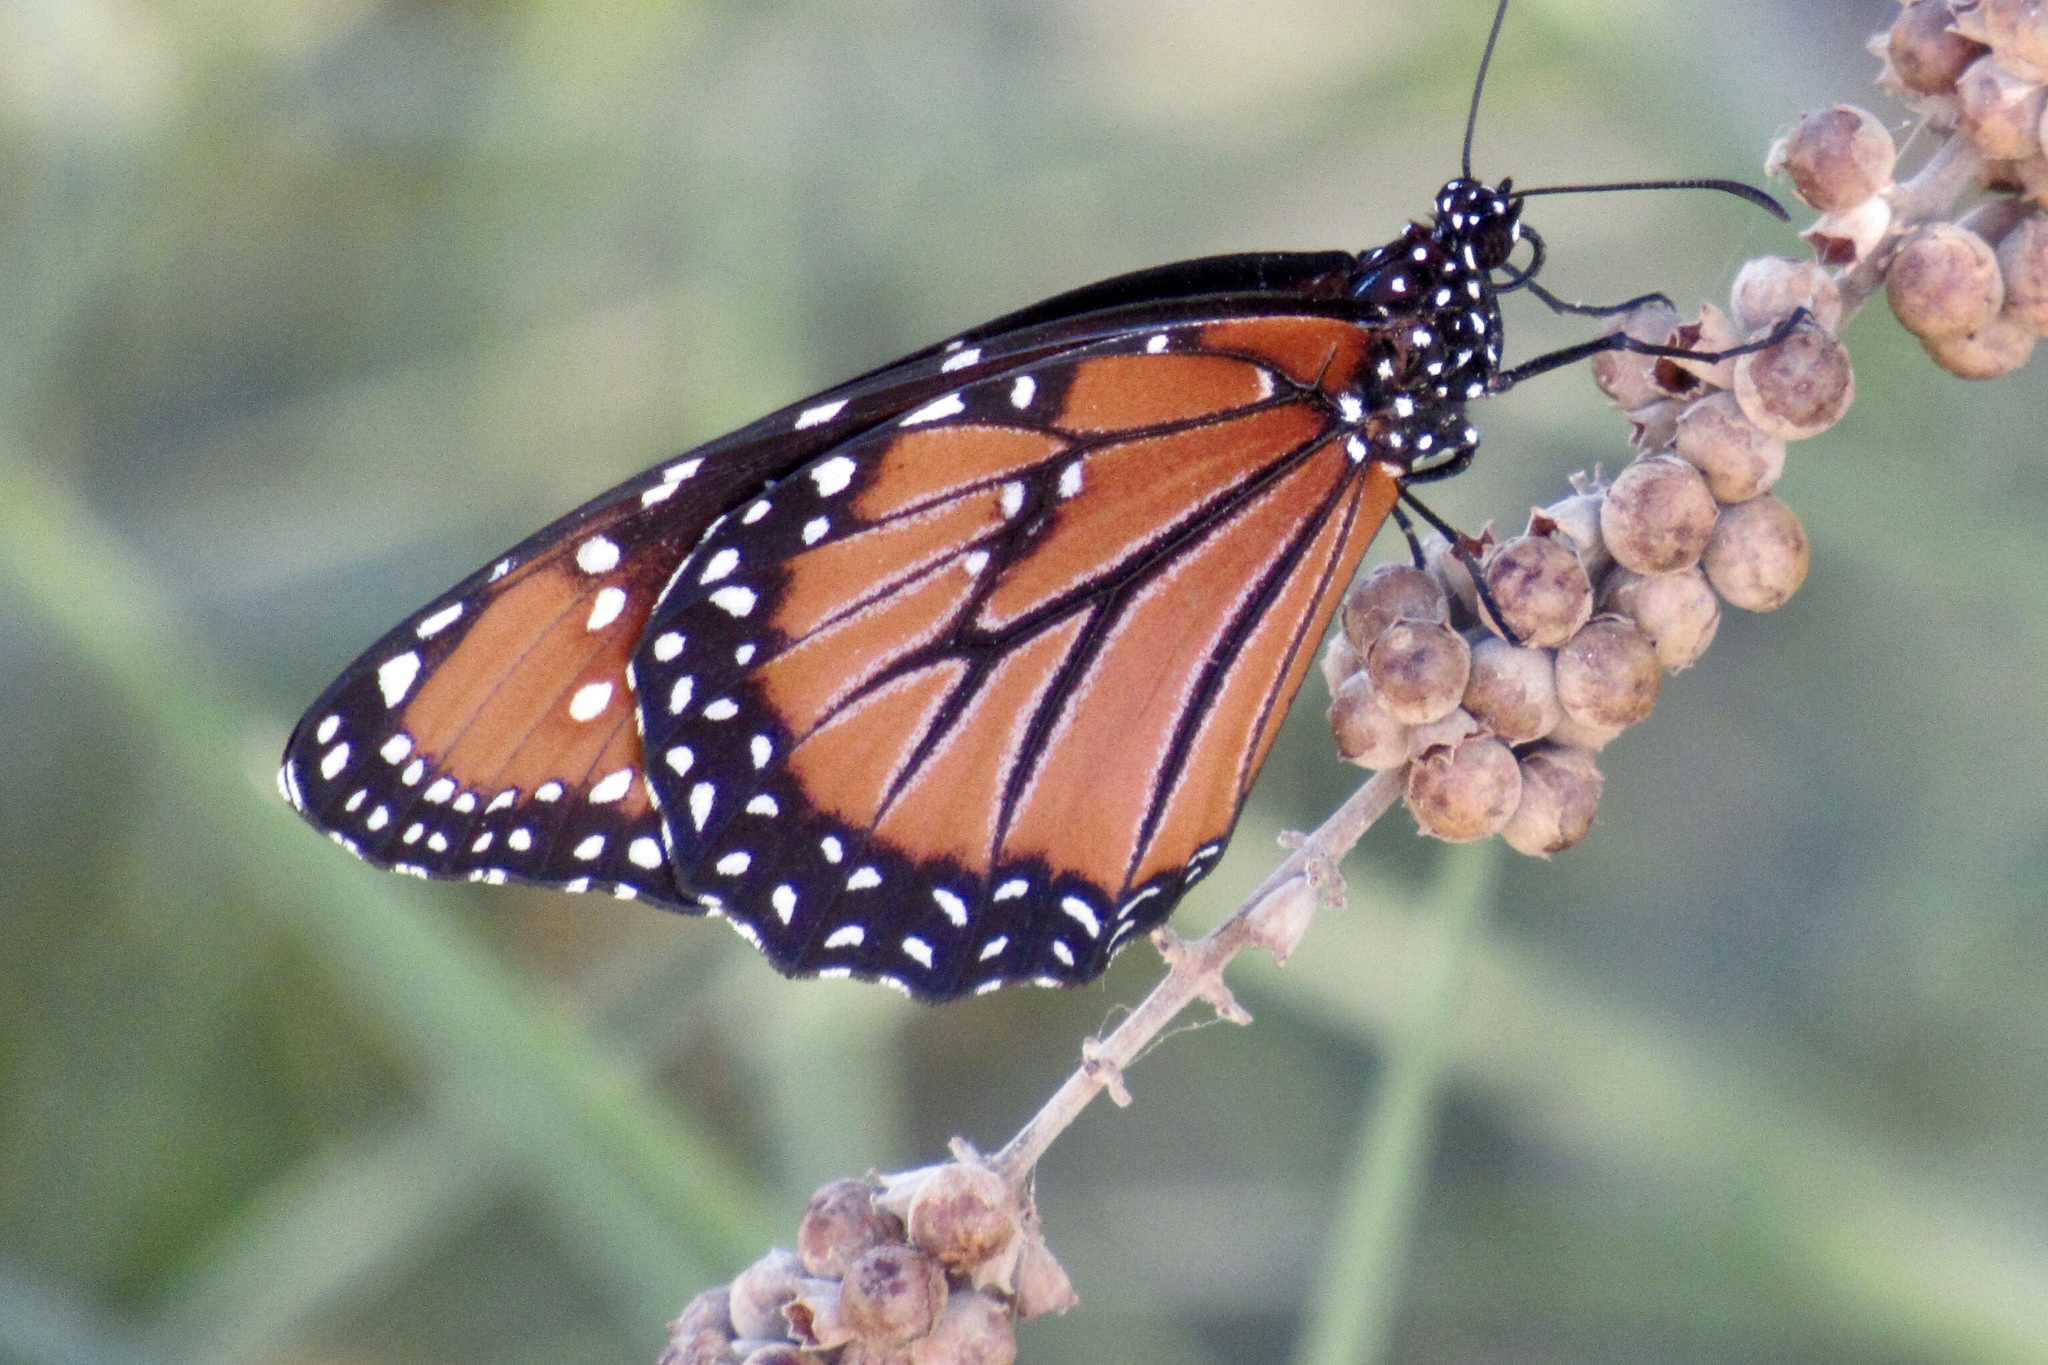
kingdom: Animalia
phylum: Arthropoda
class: Insecta
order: Lepidoptera
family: Nymphalidae
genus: Danaus
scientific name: Danaus gilippus
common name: Queen
